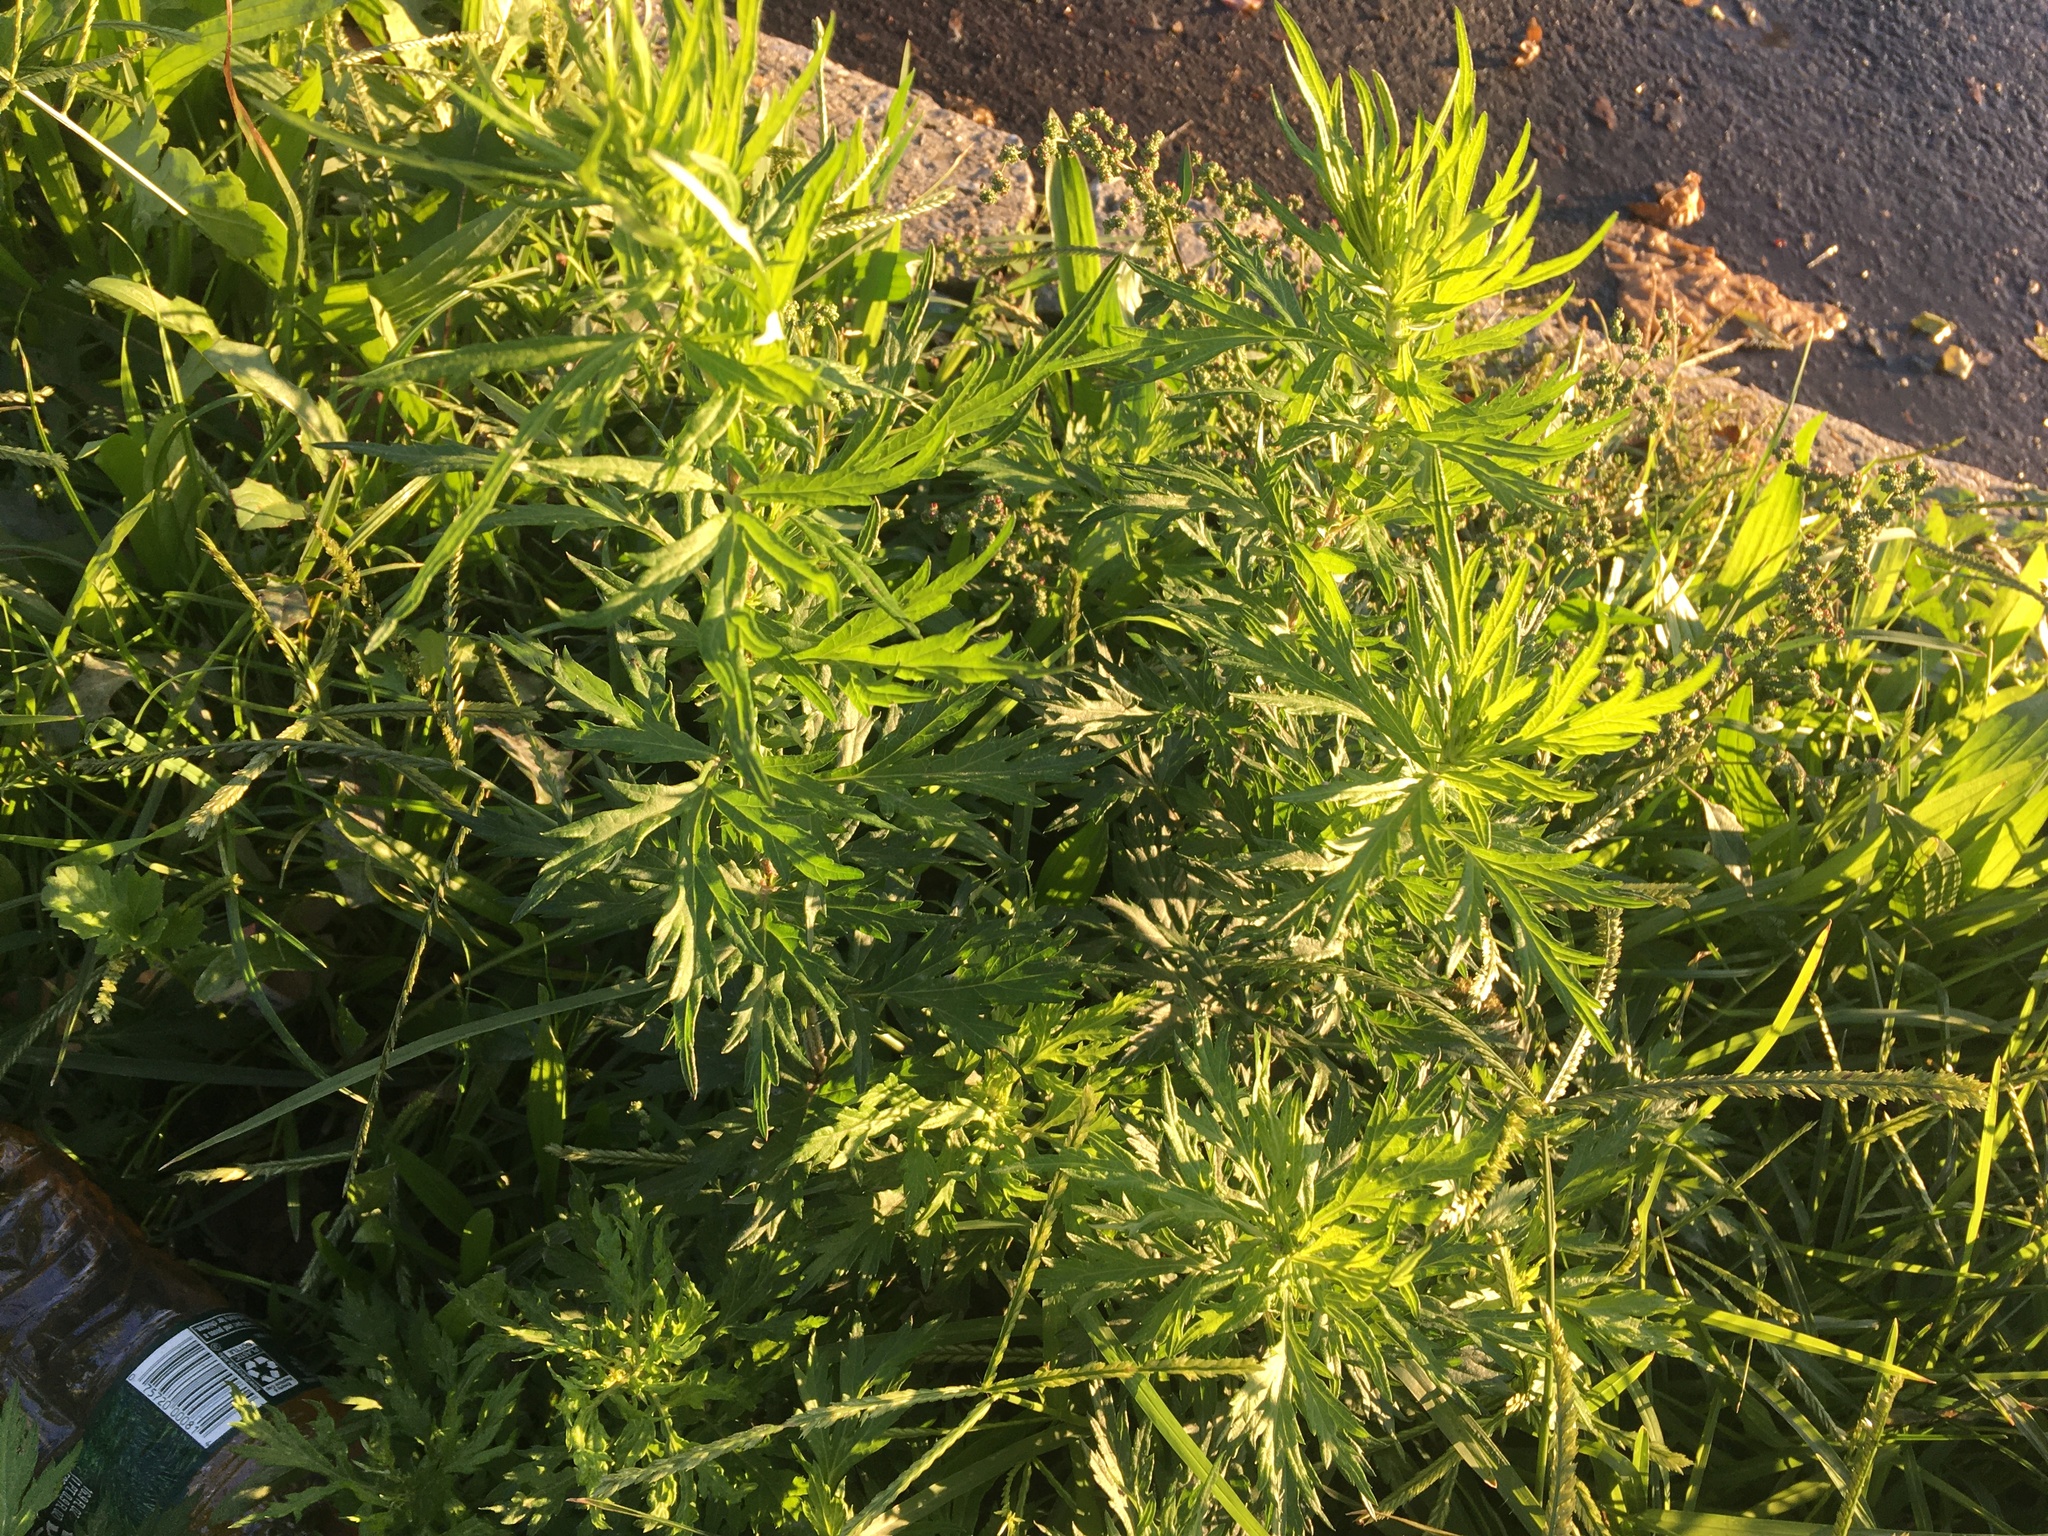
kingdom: Plantae
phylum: Tracheophyta
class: Magnoliopsida
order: Asterales
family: Asteraceae
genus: Artemisia
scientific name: Artemisia vulgaris
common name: Mugwort
